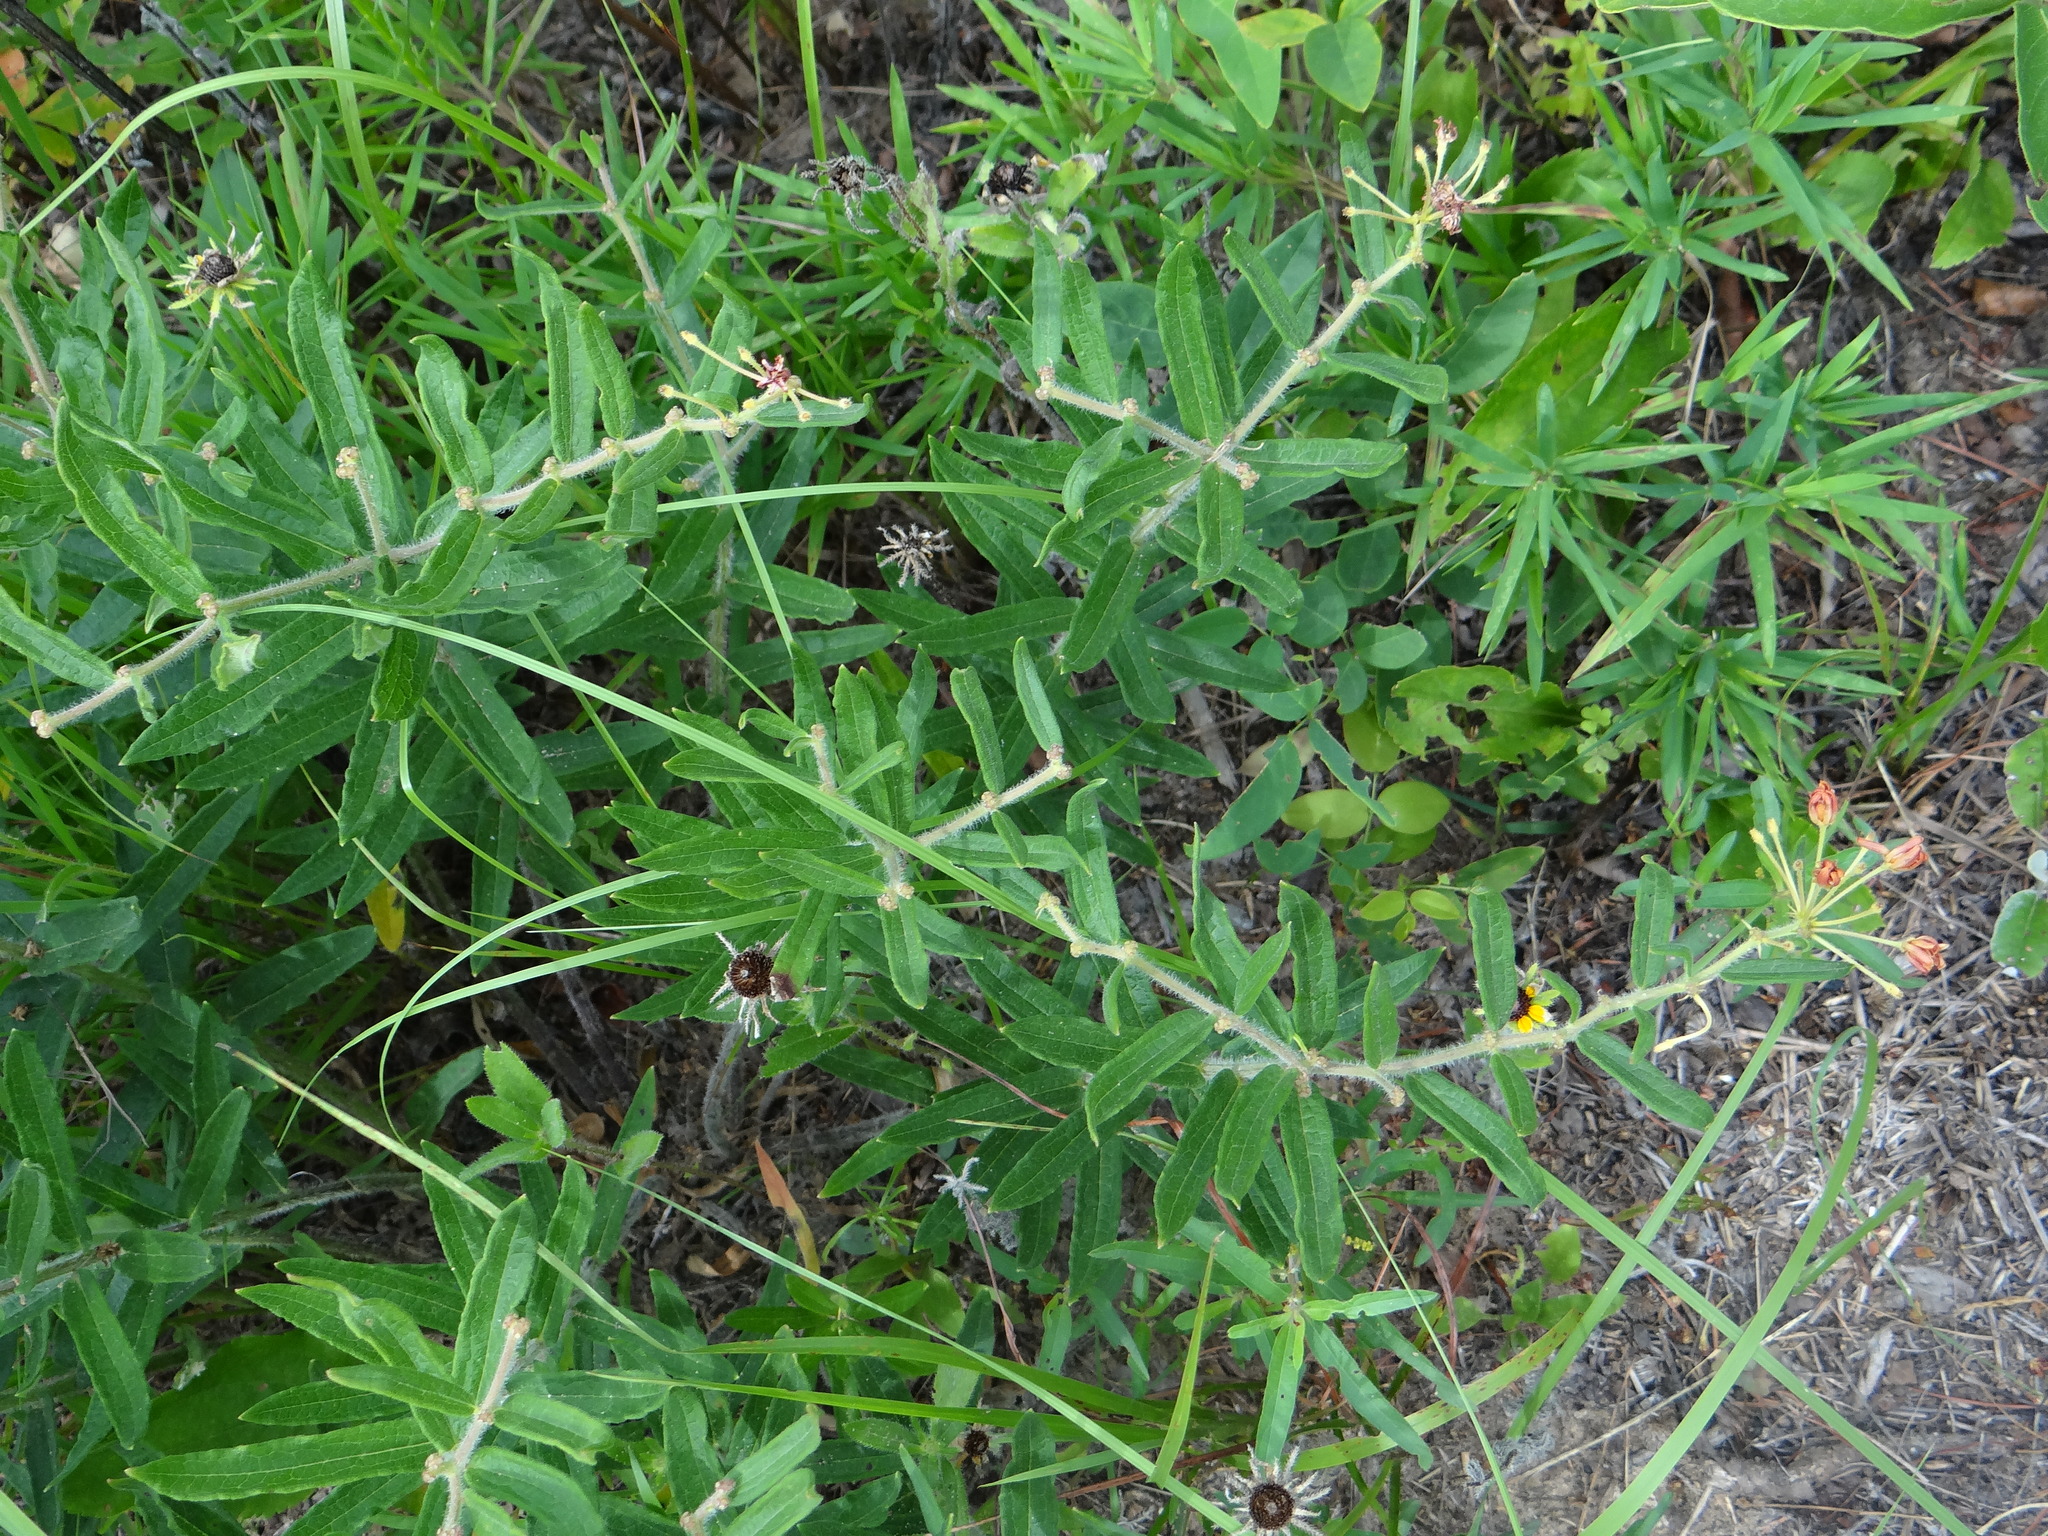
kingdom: Plantae
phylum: Tracheophyta
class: Magnoliopsida
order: Gentianales
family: Apocynaceae
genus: Asclepias
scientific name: Asclepias tuberosa
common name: Butterfly milkweed
